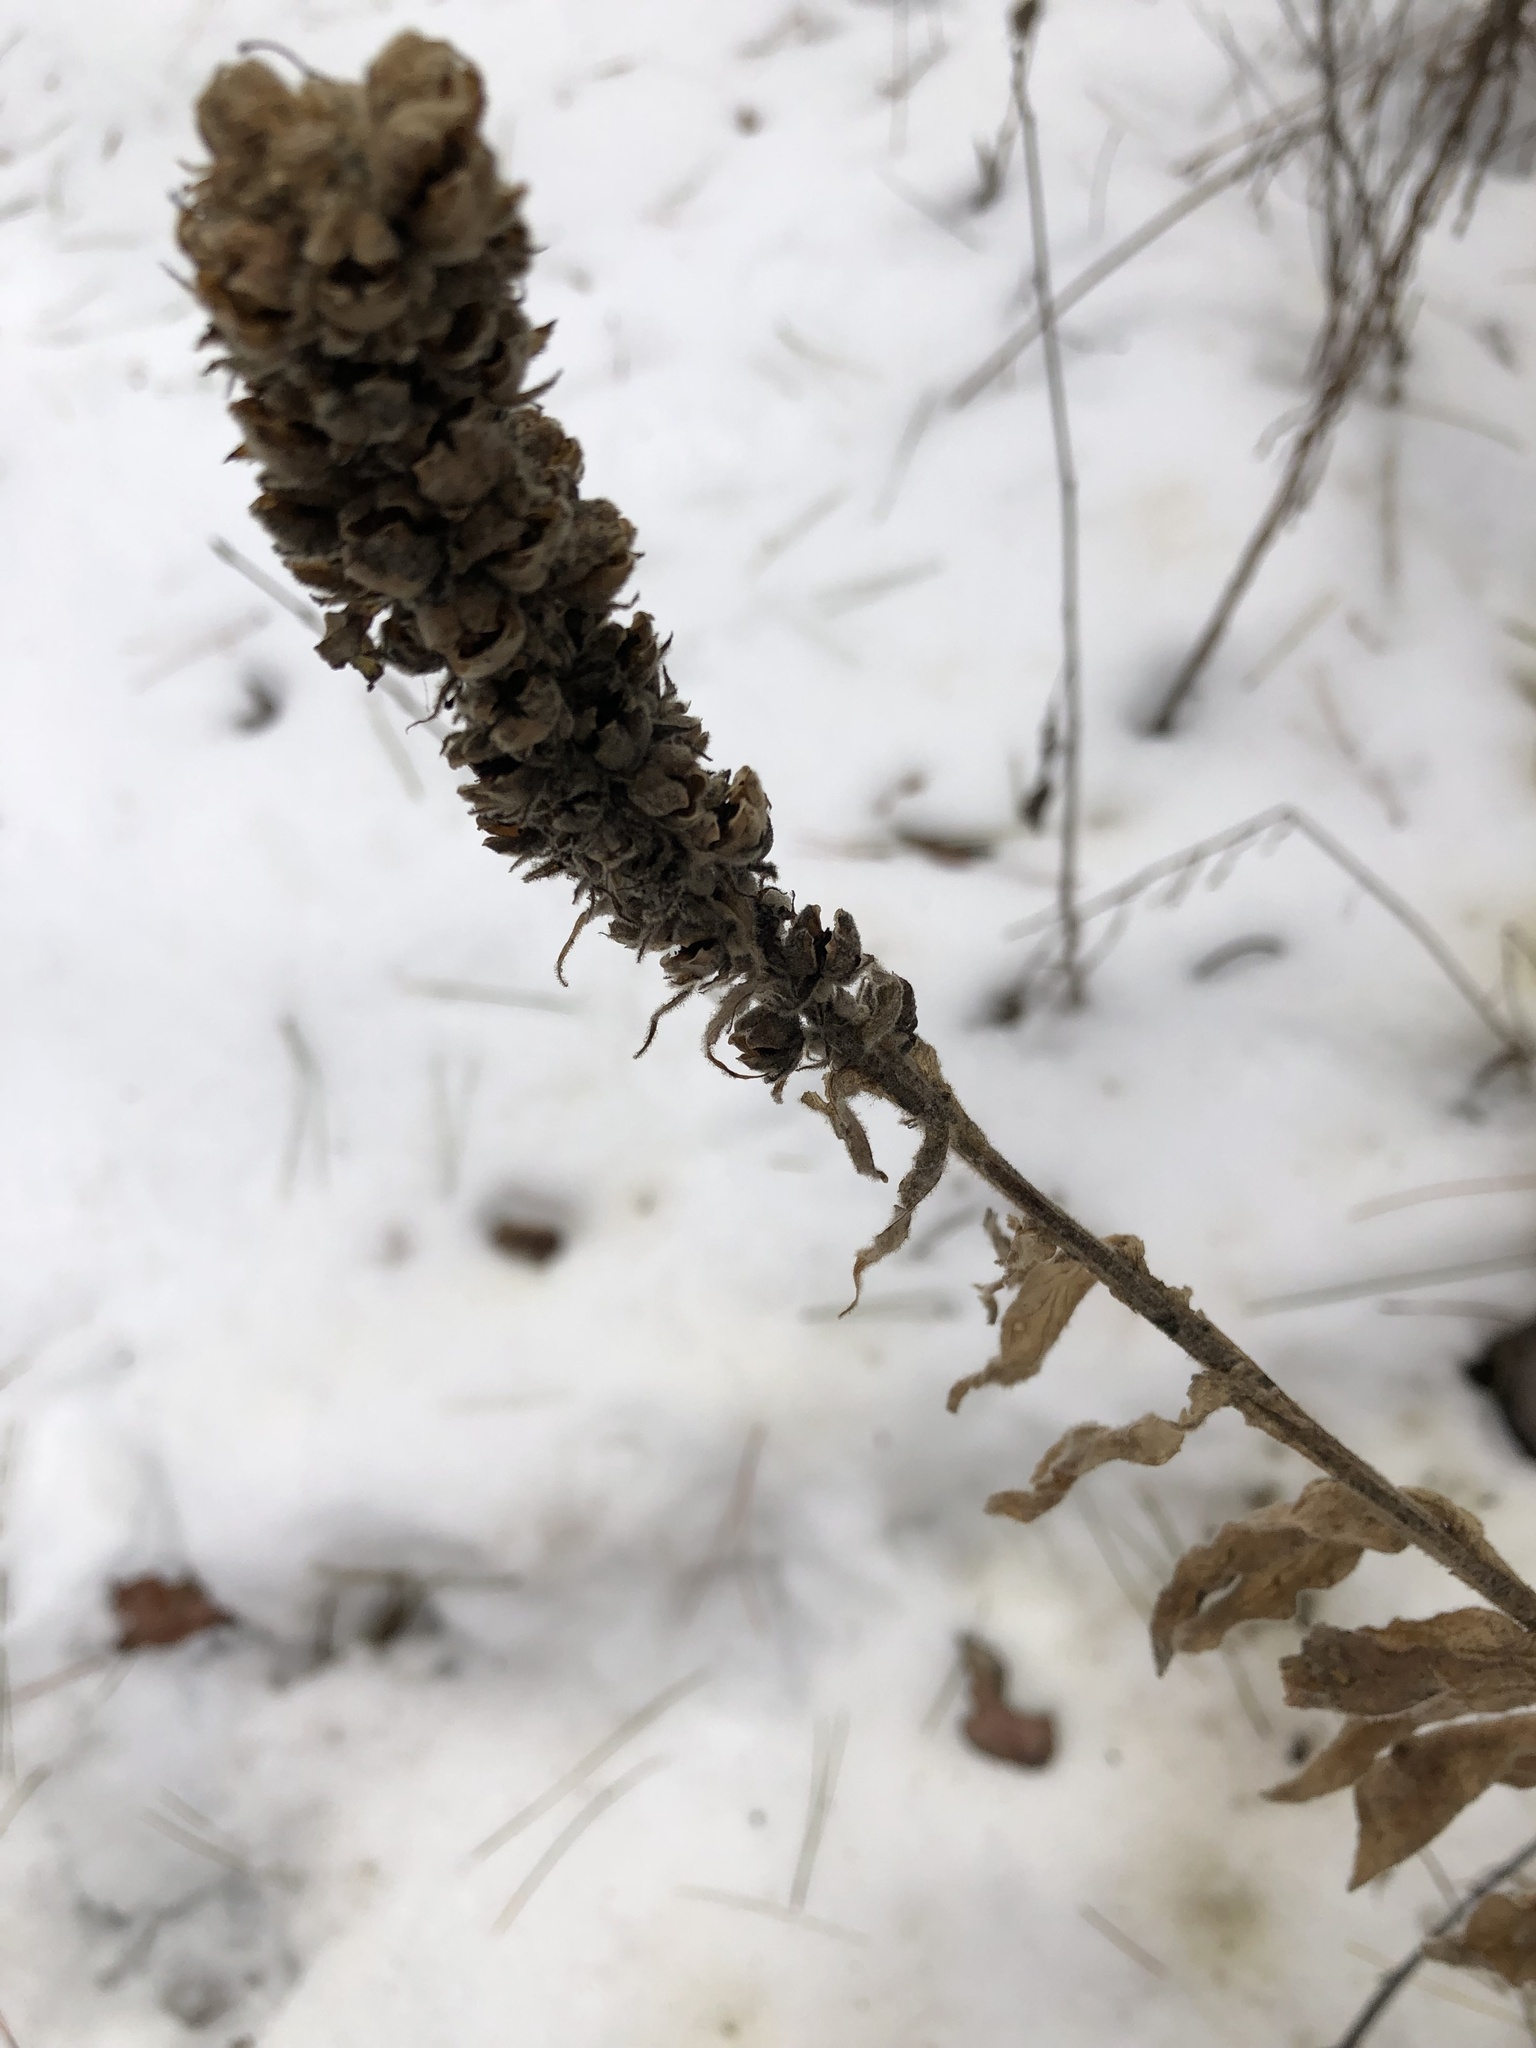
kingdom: Plantae
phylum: Tracheophyta
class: Magnoliopsida
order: Lamiales
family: Scrophulariaceae
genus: Verbascum
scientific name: Verbascum thapsus
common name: Common mullein
